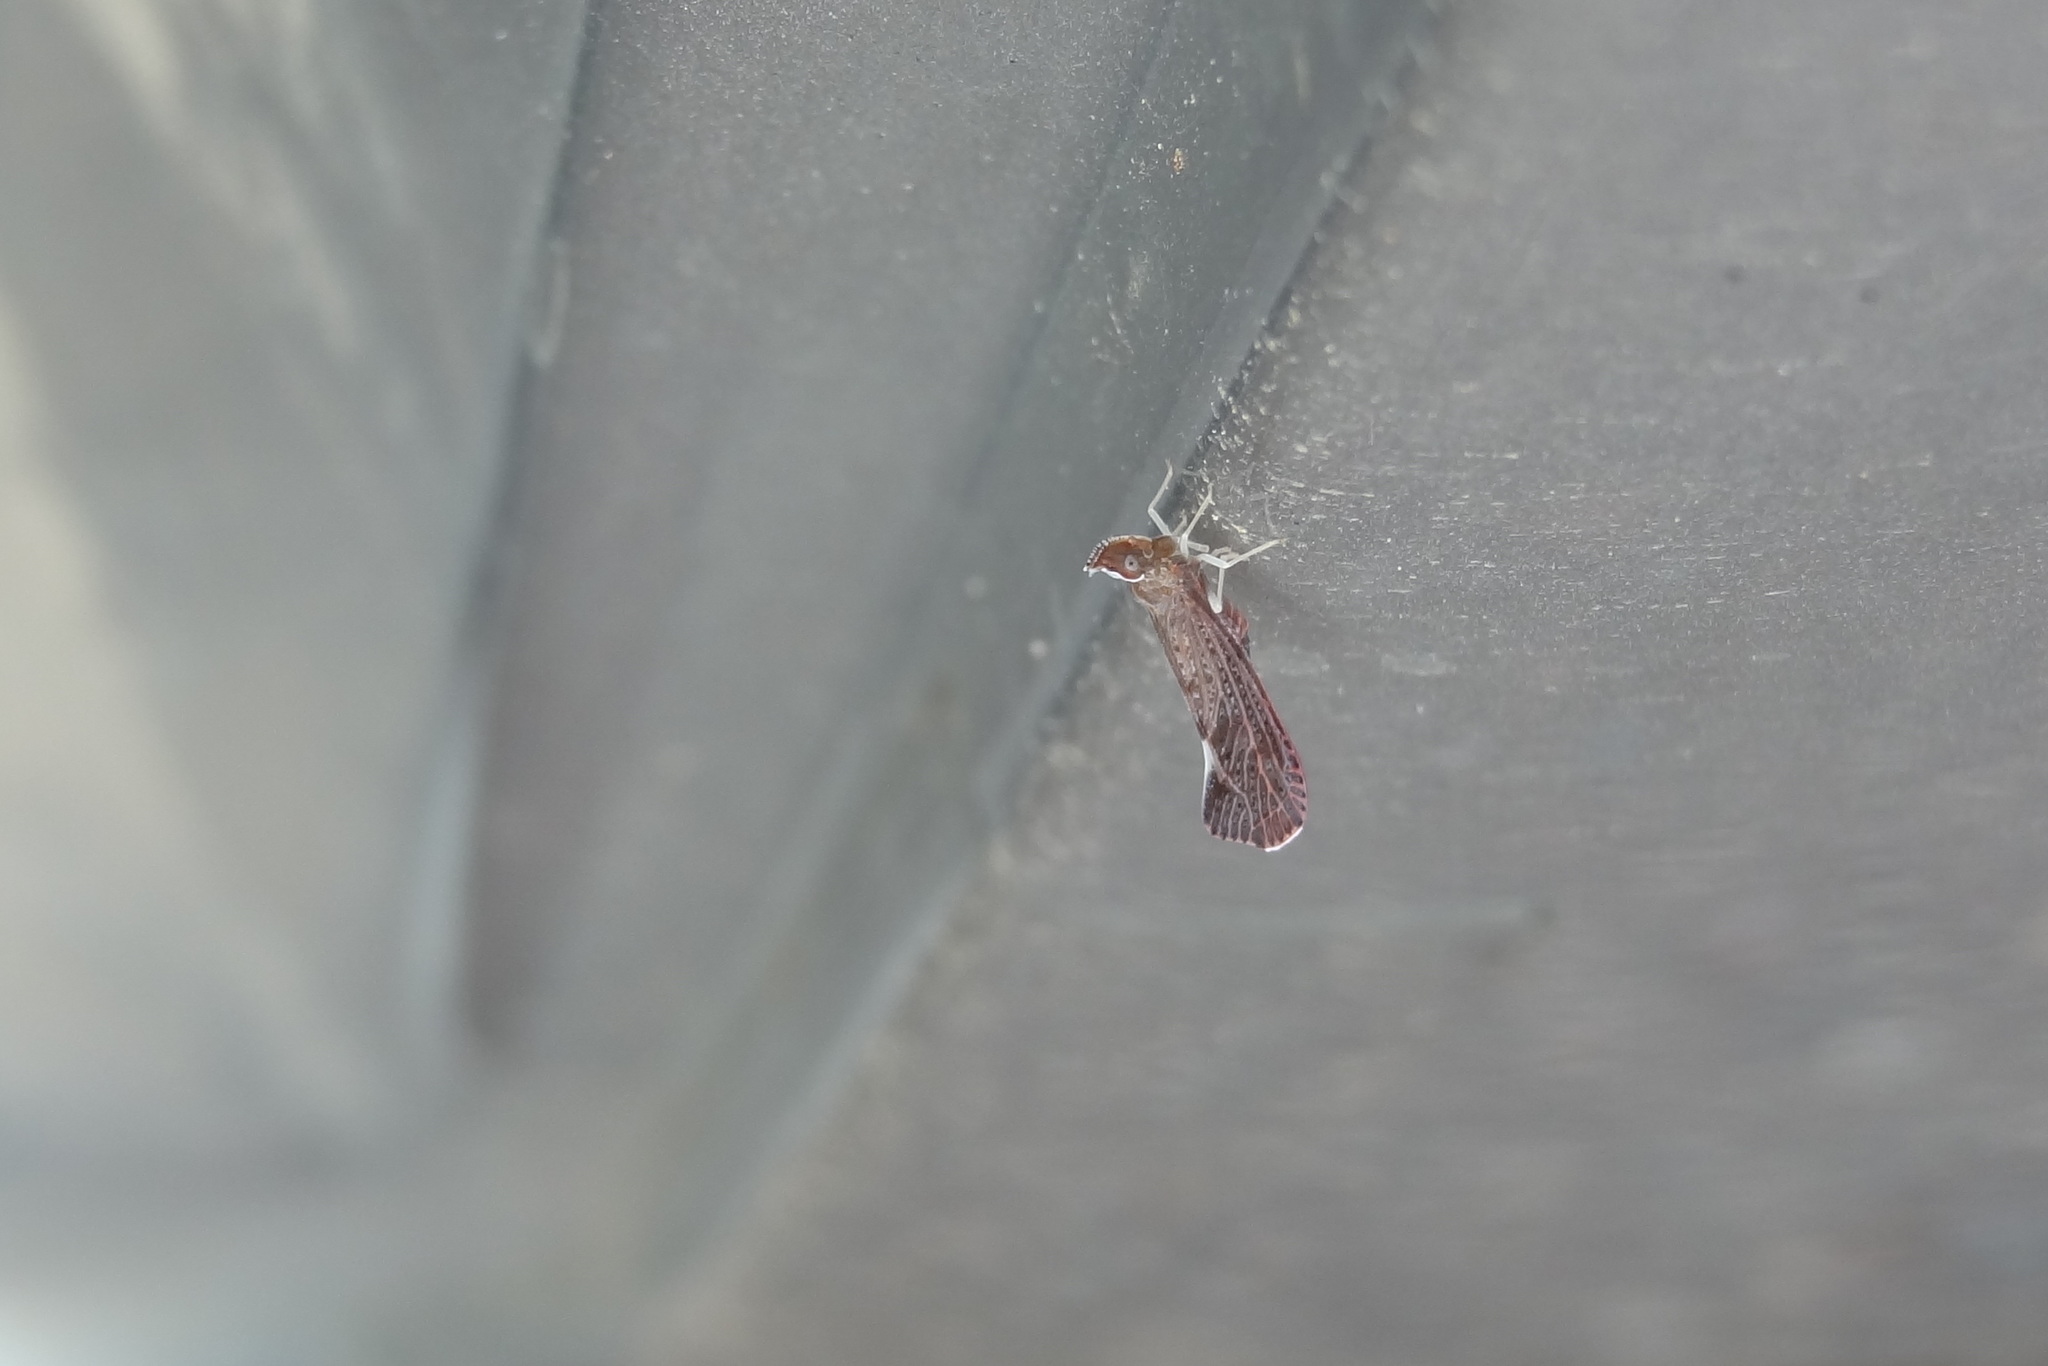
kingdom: Animalia
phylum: Arthropoda
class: Insecta
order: Hemiptera
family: Derbidae
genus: Apache
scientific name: Apache degeeri
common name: Red-fanned planthopper
